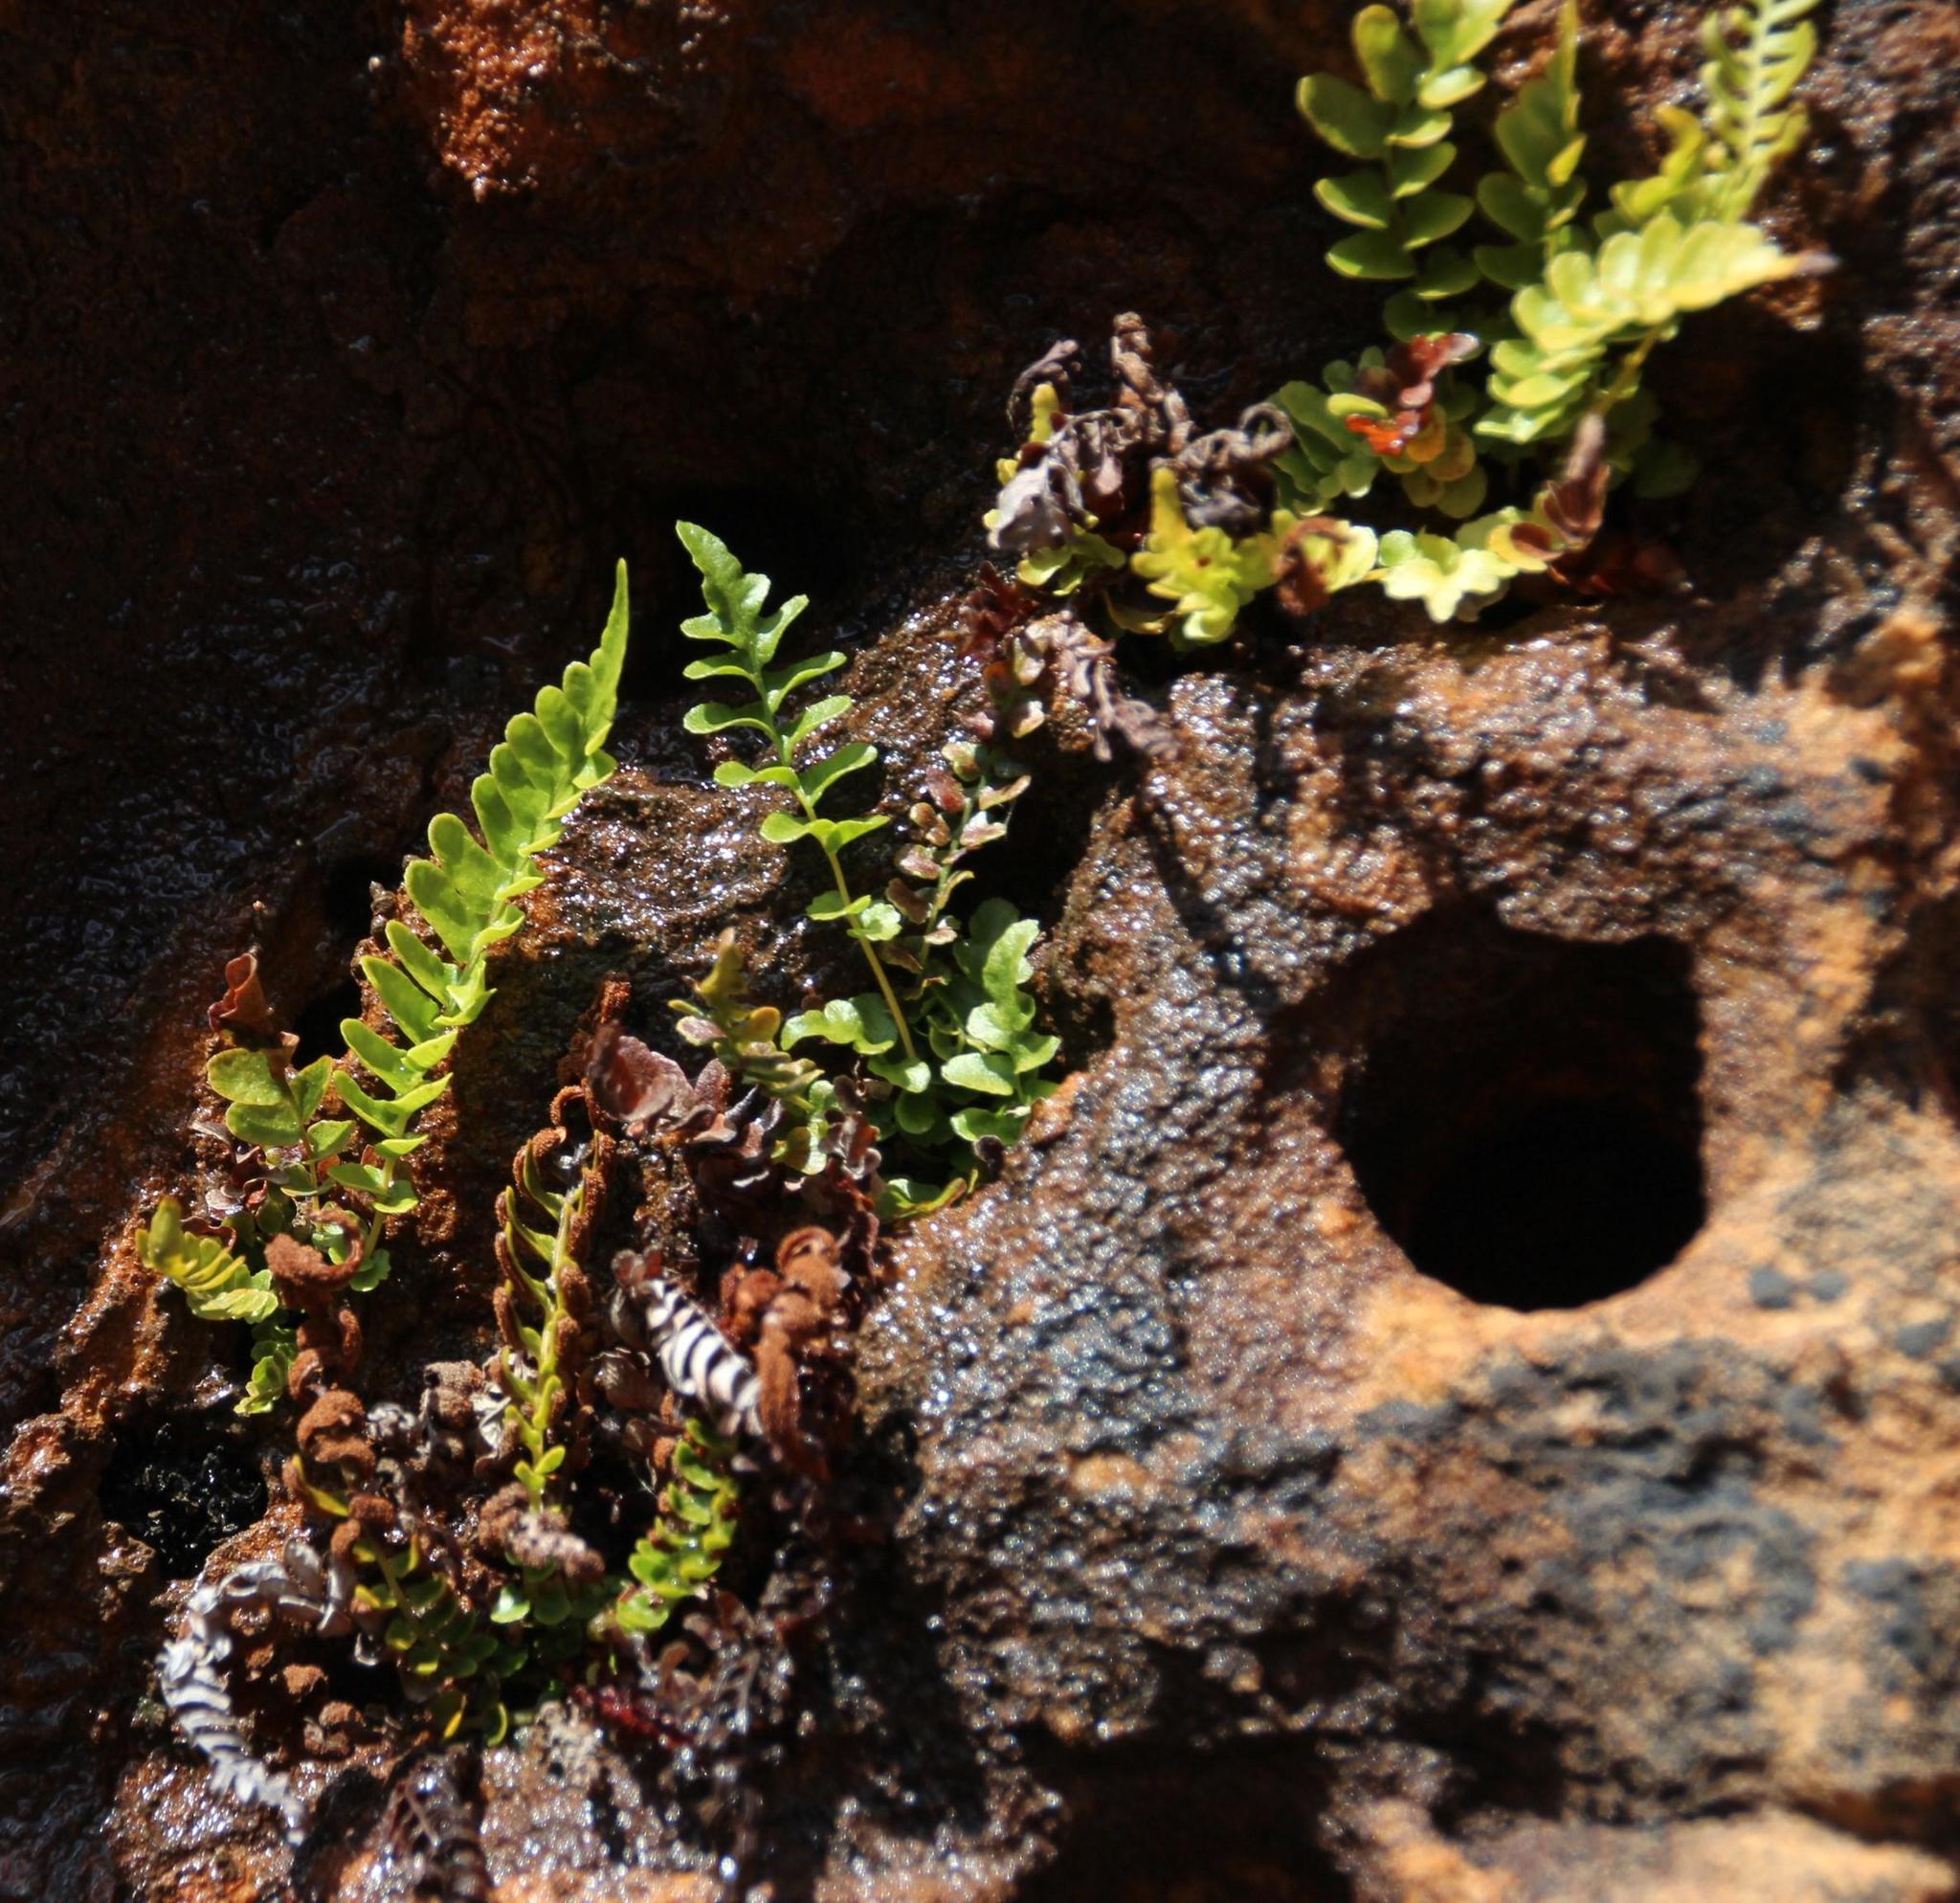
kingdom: Plantae
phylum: Tracheophyta
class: Polypodiopsida
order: Polypodiales
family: Blechnaceae
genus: Blechnum
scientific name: Blechnum punctulatum
